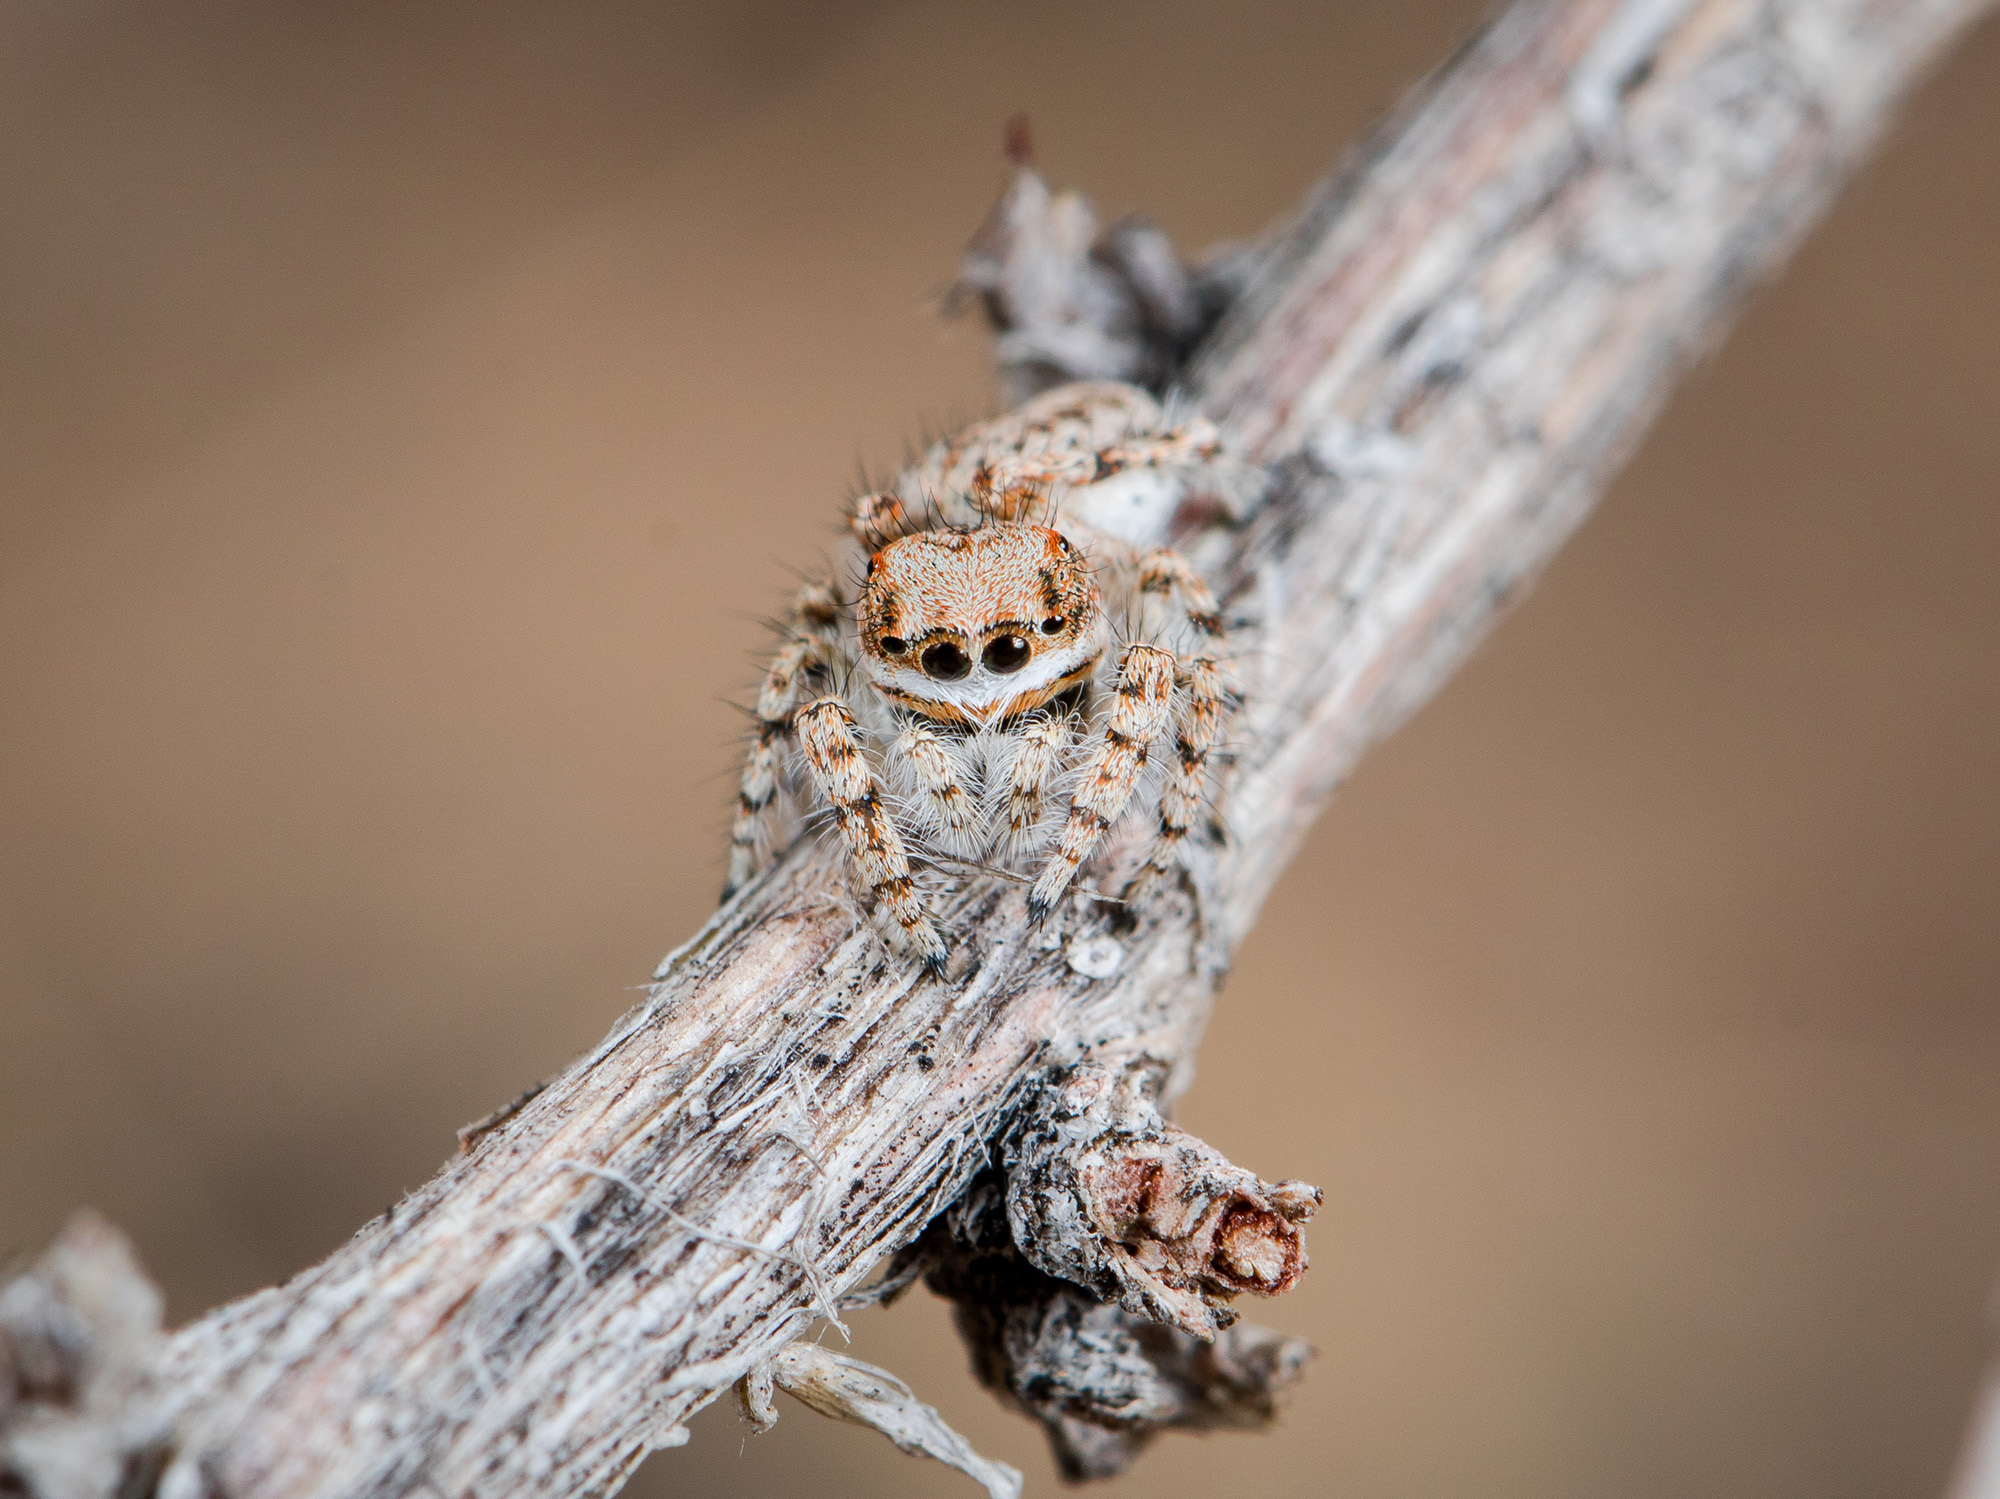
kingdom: Animalia
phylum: Arthropoda
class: Arachnida
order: Araneae
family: Salticidae
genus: Yllenus
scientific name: Yllenus uiguricus
